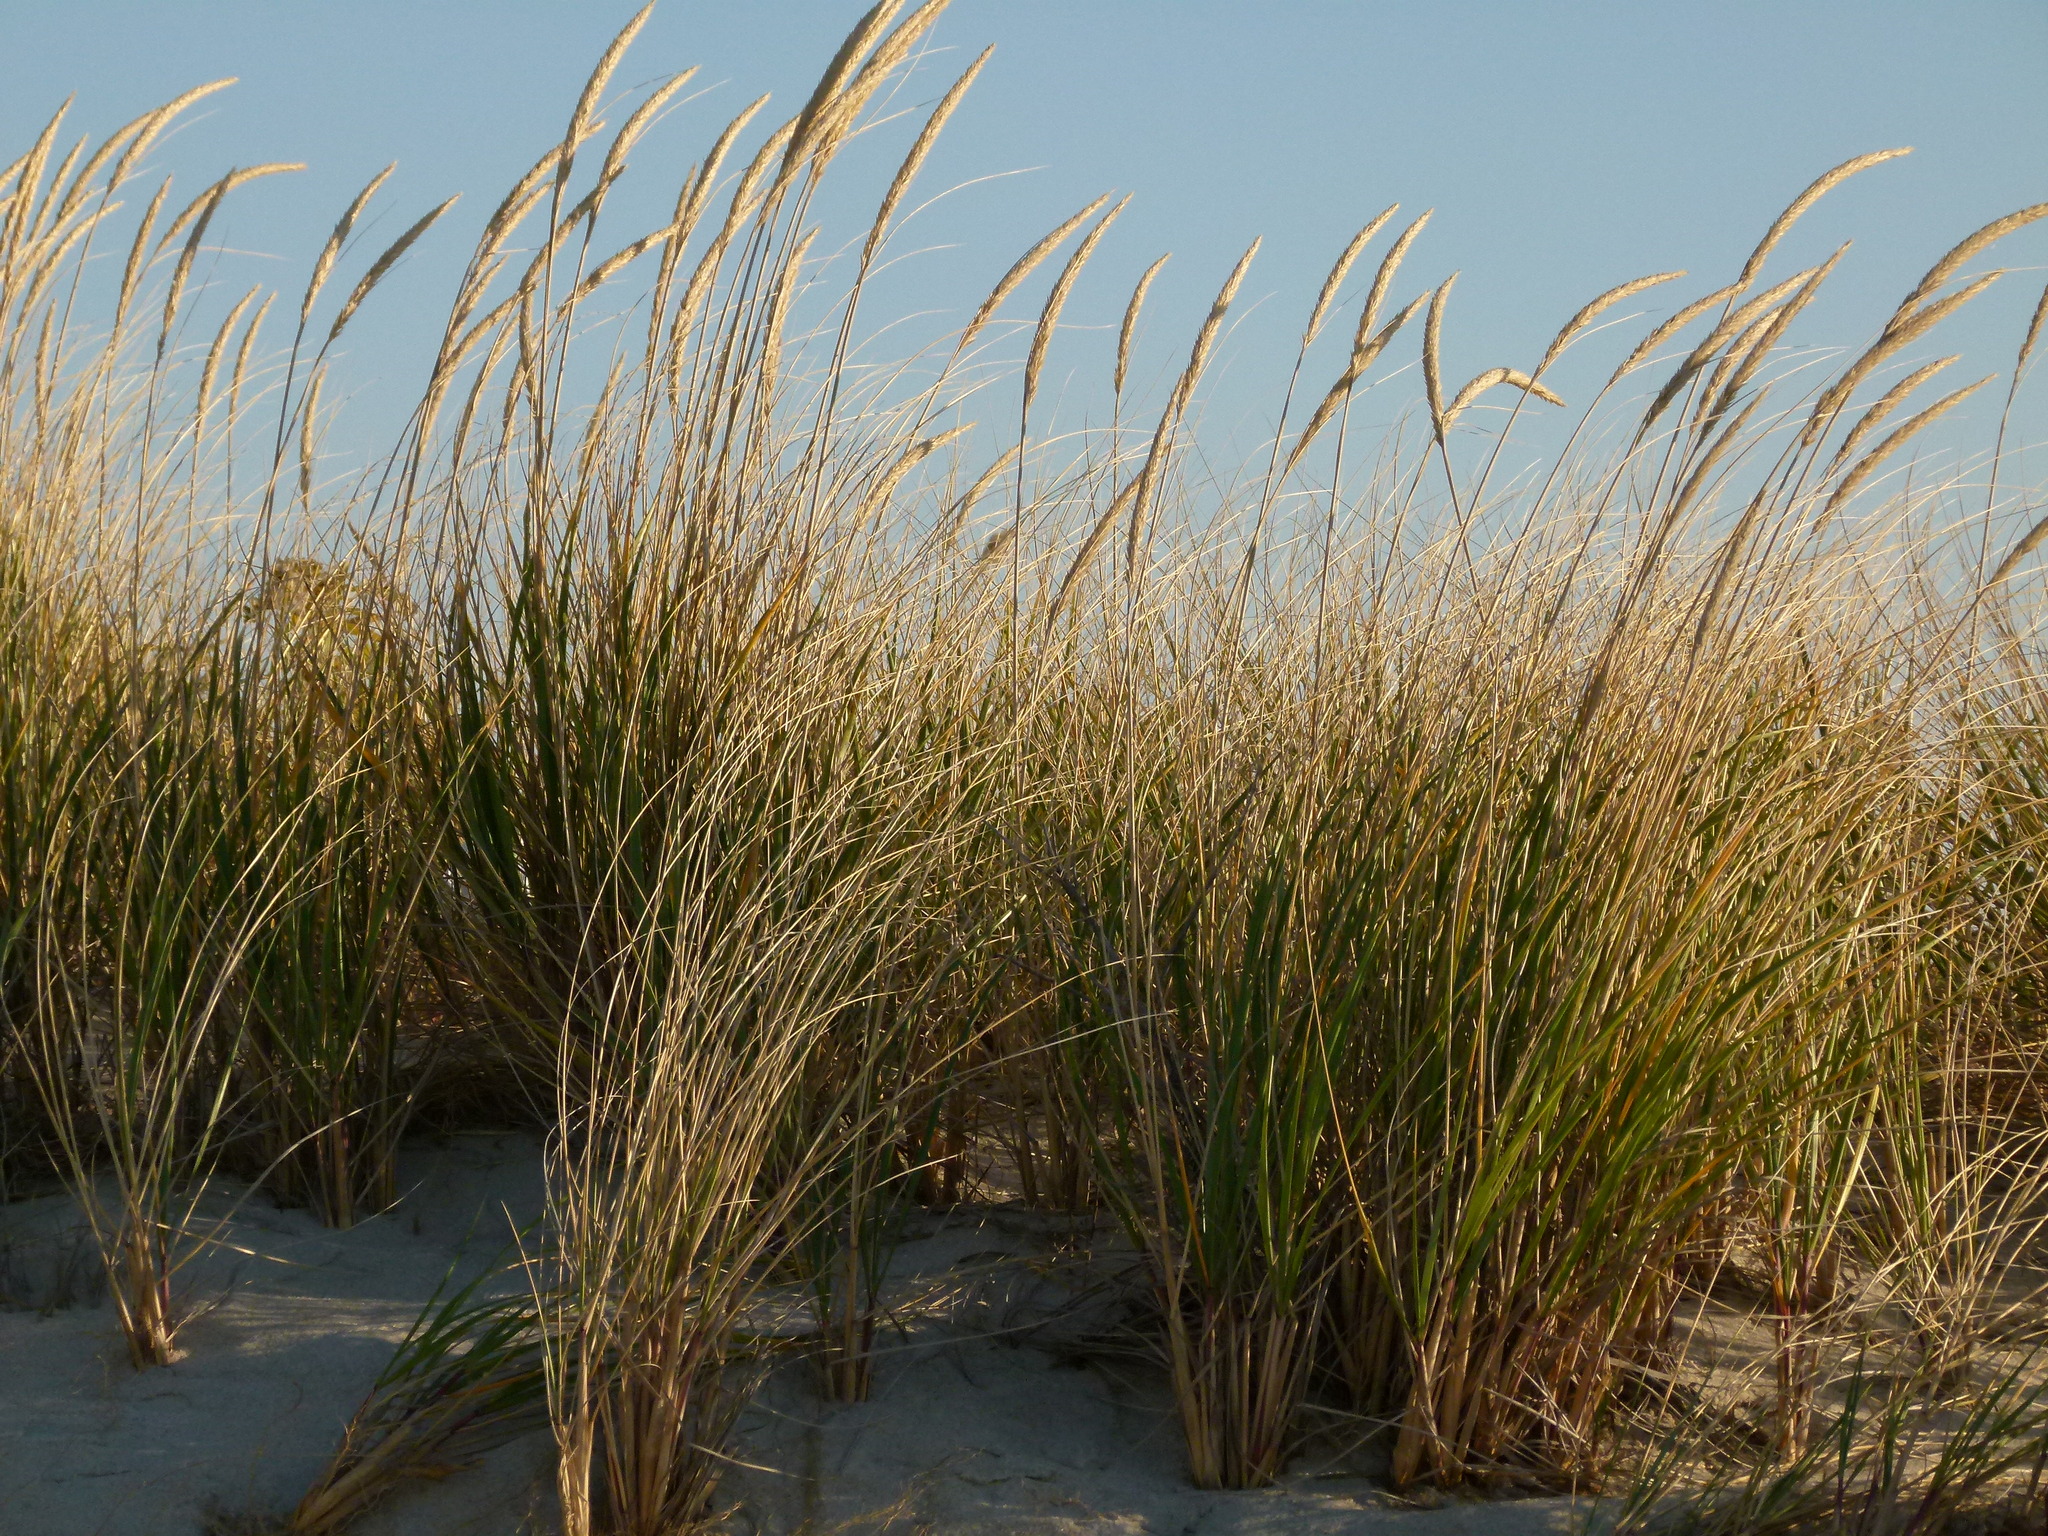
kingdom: Plantae
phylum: Tracheophyta
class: Liliopsida
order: Poales
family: Poaceae
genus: Calamagrostis
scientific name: Calamagrostis breviligulata
